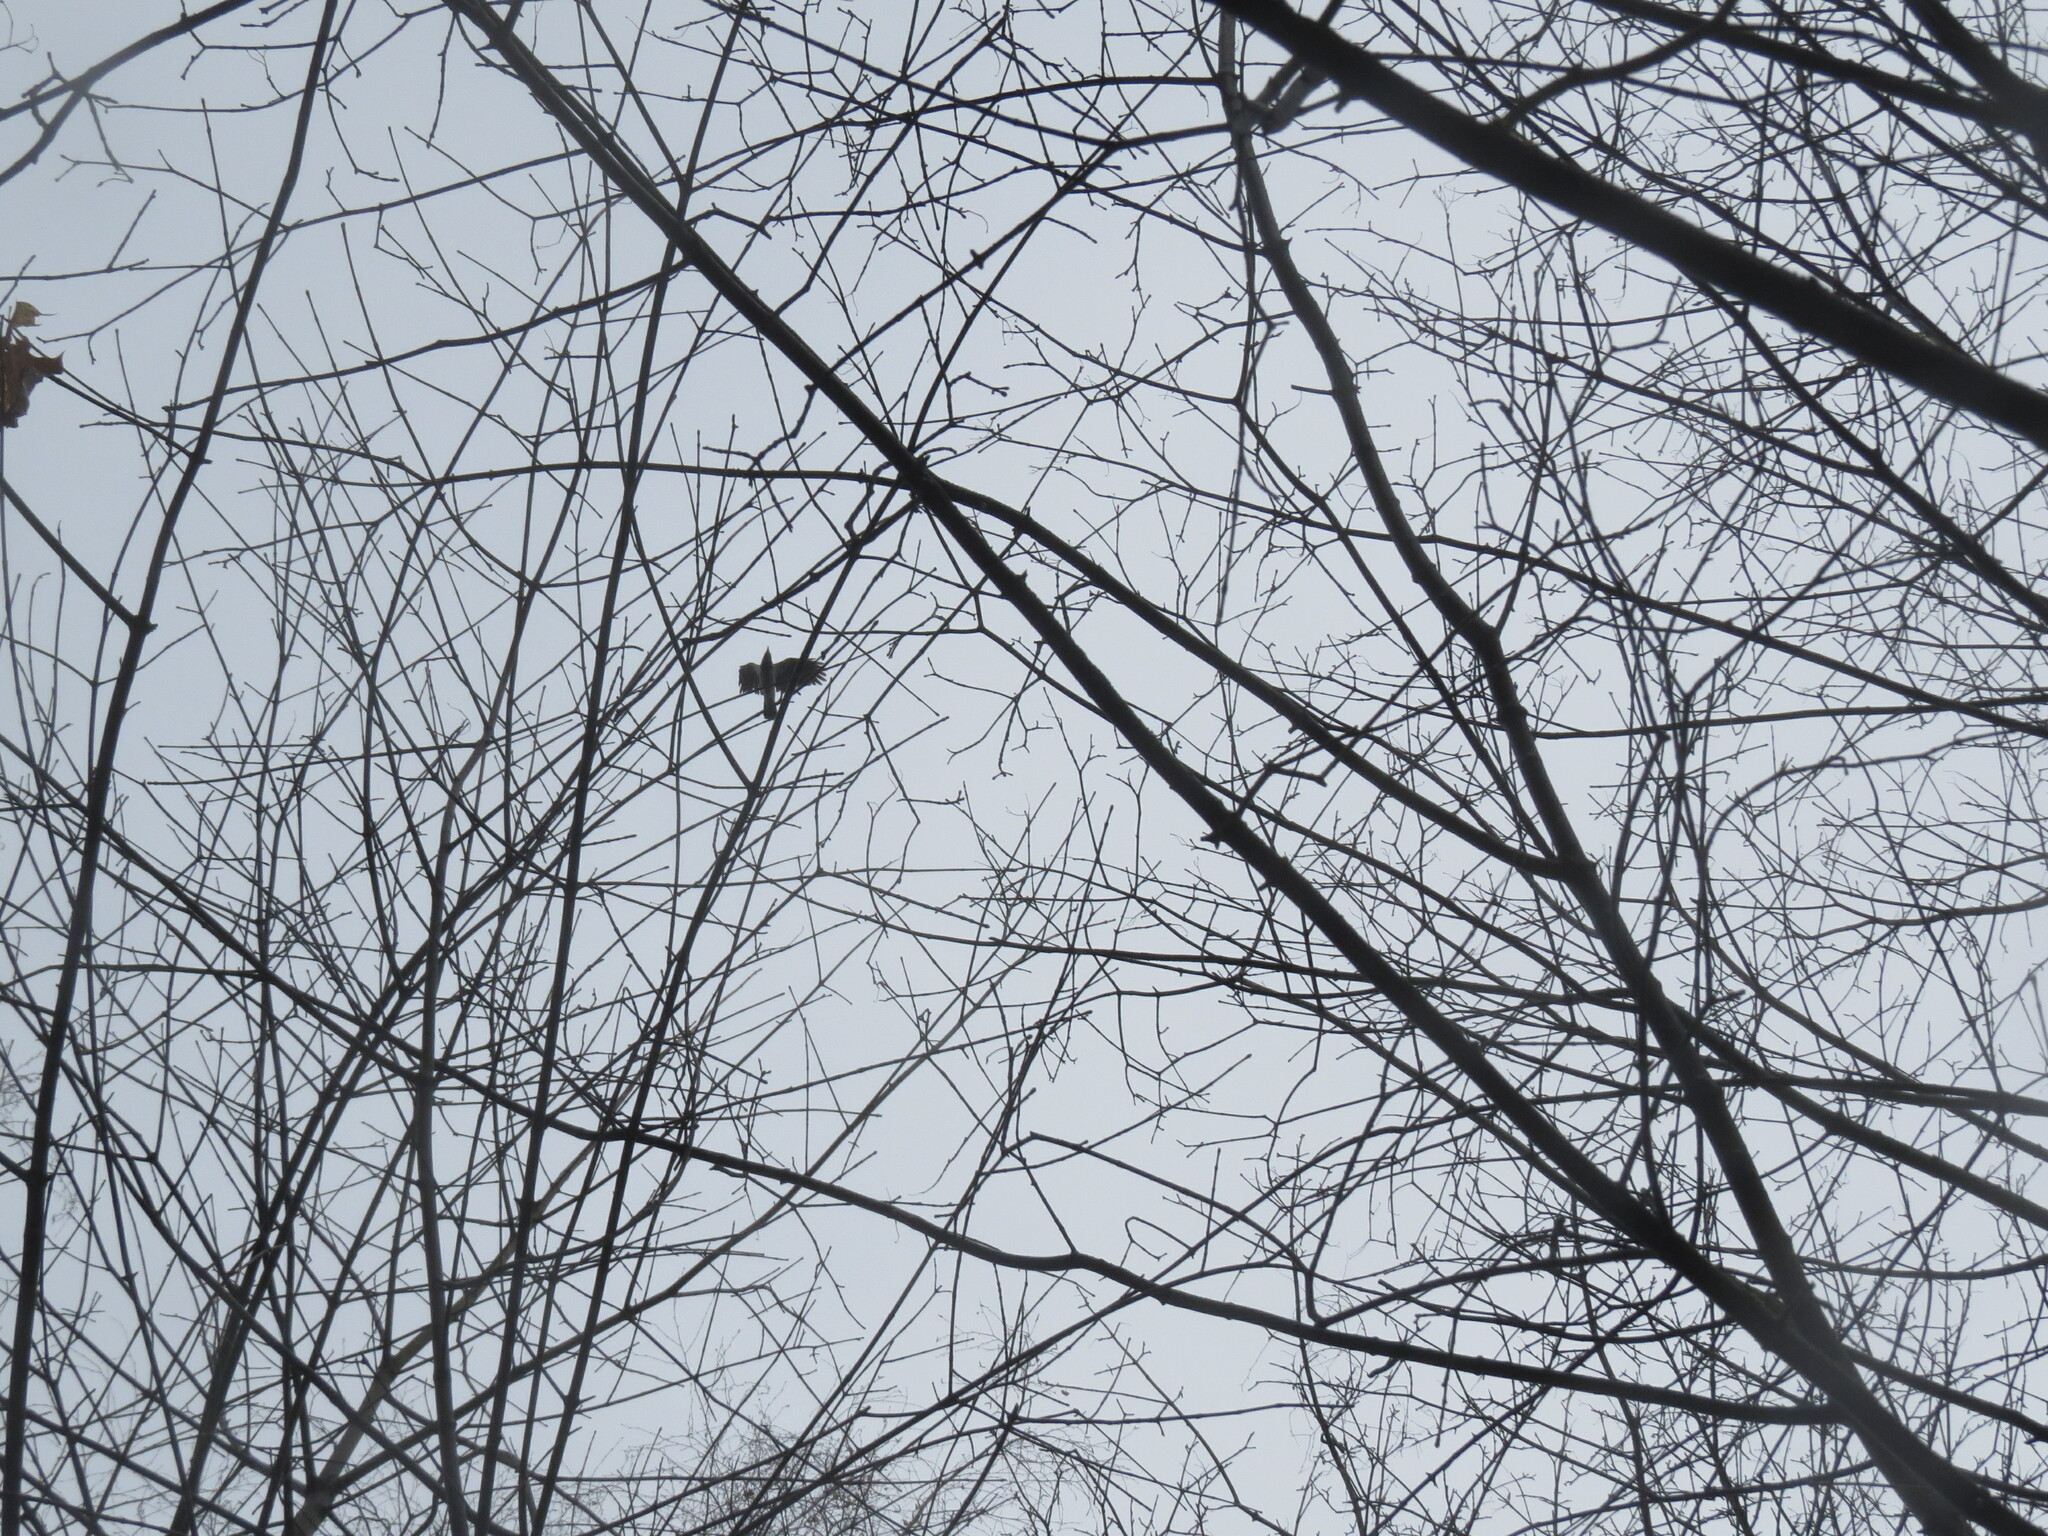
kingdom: Animalia
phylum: Chordata
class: Aves
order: Passeriformes
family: Corvidae
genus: Corvus
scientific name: Corvus cornix
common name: Hooded crow
